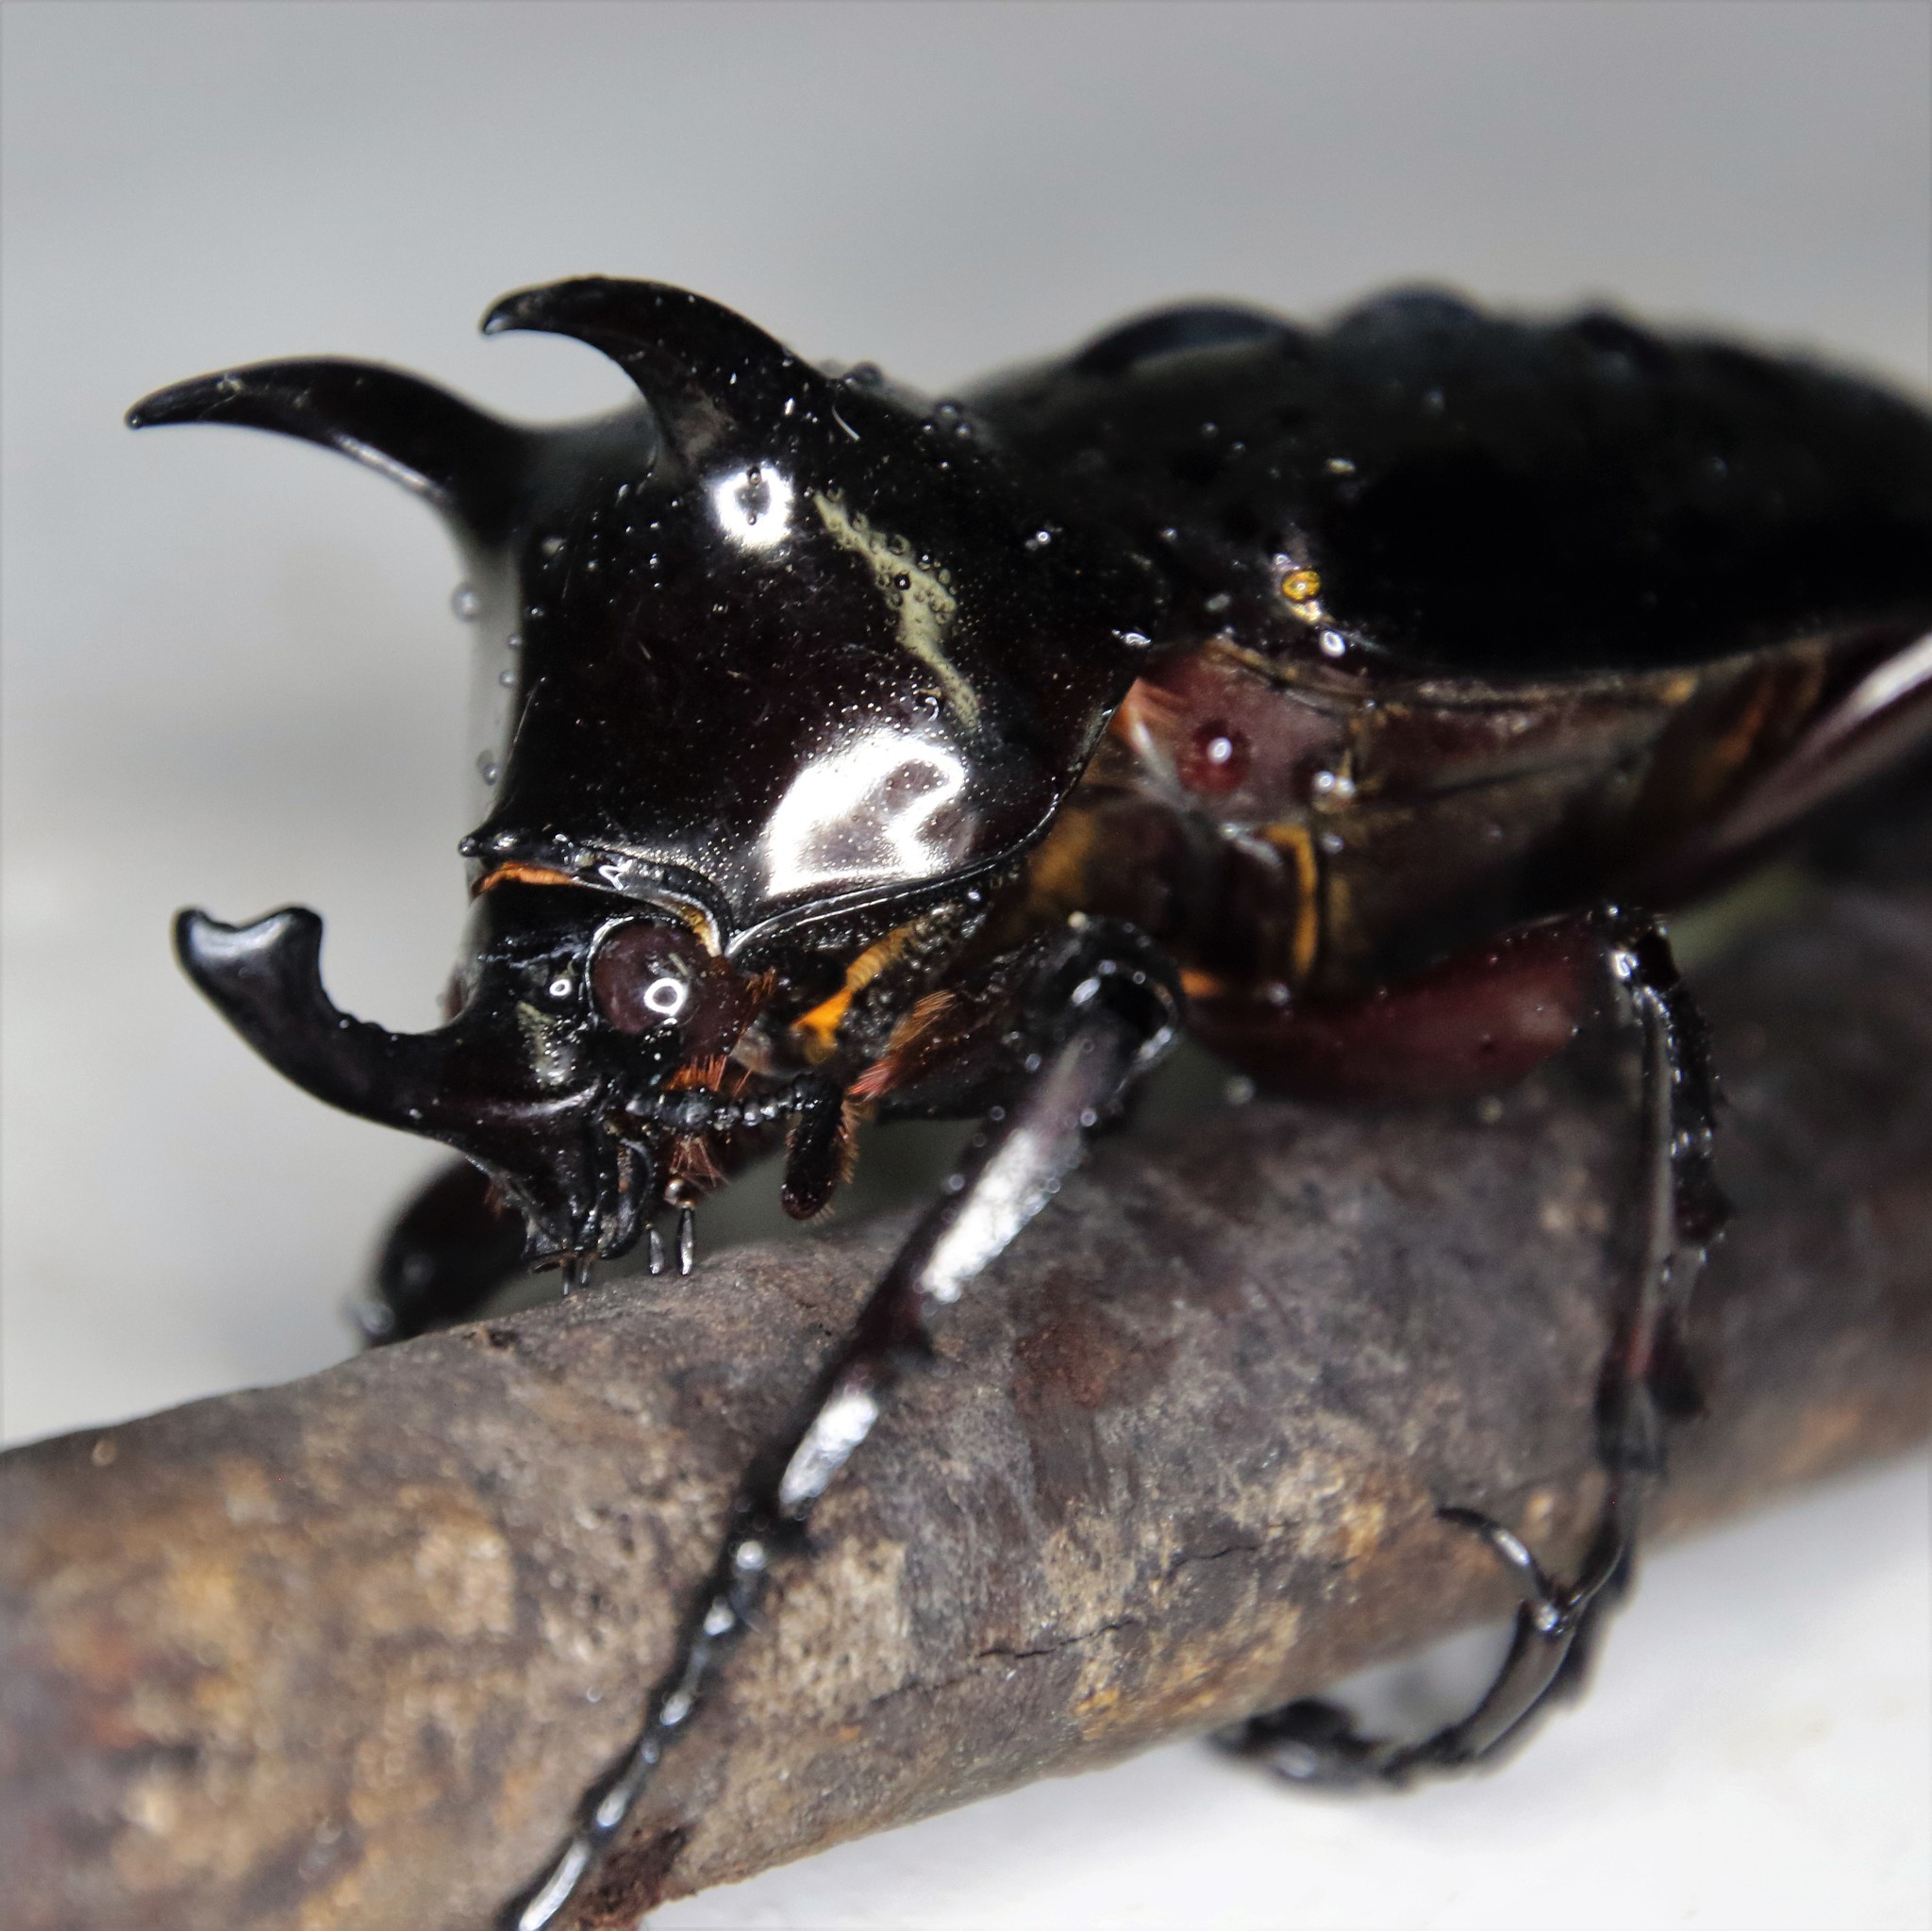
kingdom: Animalia
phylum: Arthropoda
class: Insecta
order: Coleoptera
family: Scarabaeidae
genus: Chalcosoma
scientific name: Chalcosoma atlas
